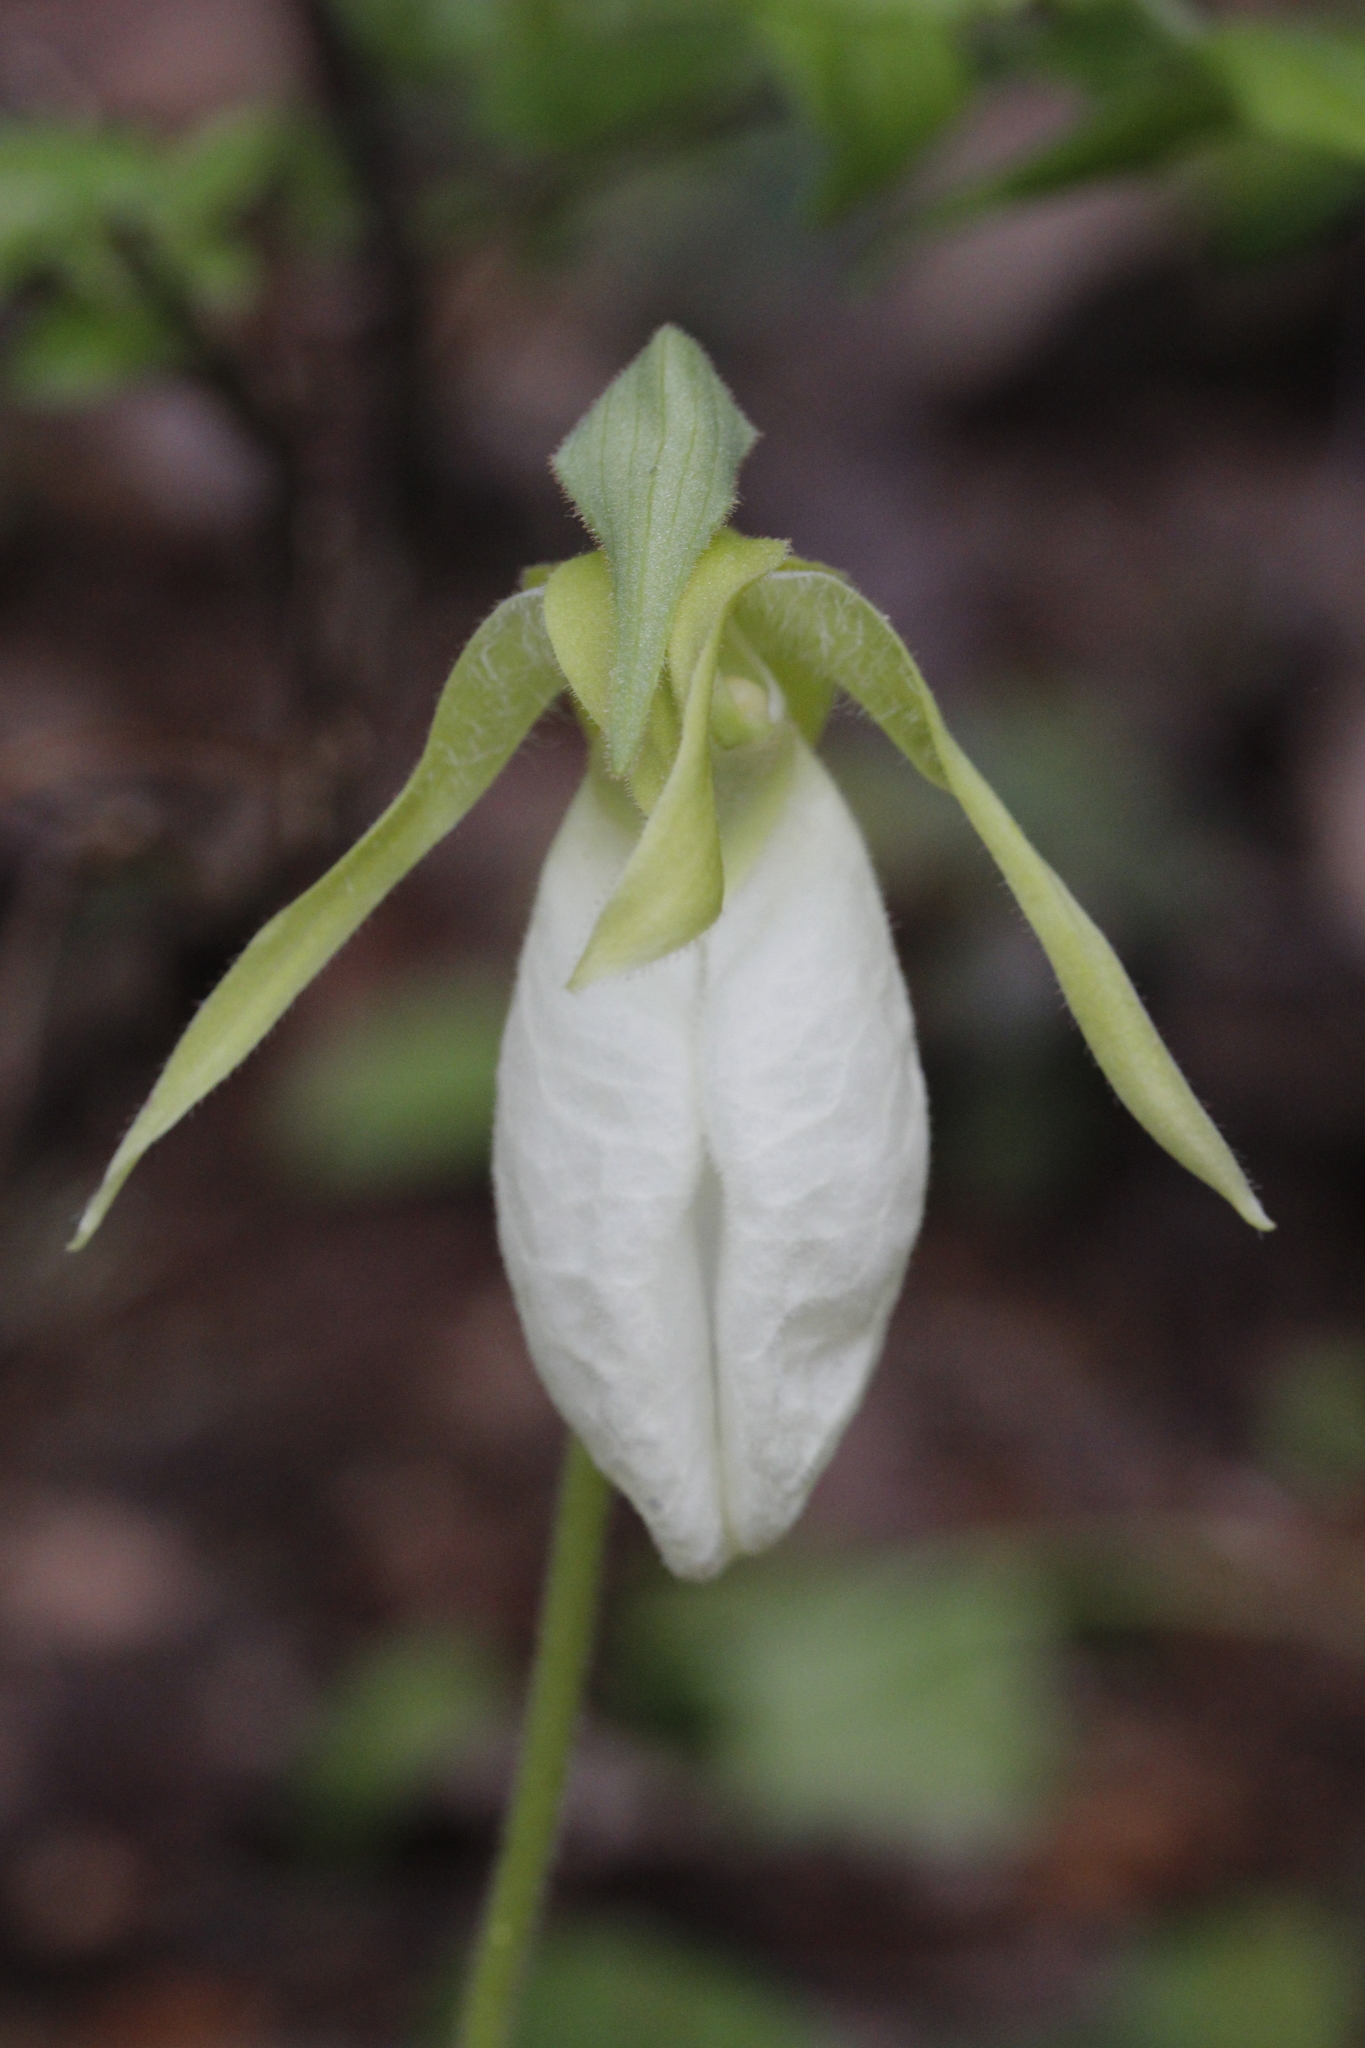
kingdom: Plantae
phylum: Tracheophyta
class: Liliopsida
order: Asparagales
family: Orchidaceae
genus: Cypripedium
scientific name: Cypripedium acaule
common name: Pink lady's-slipper
